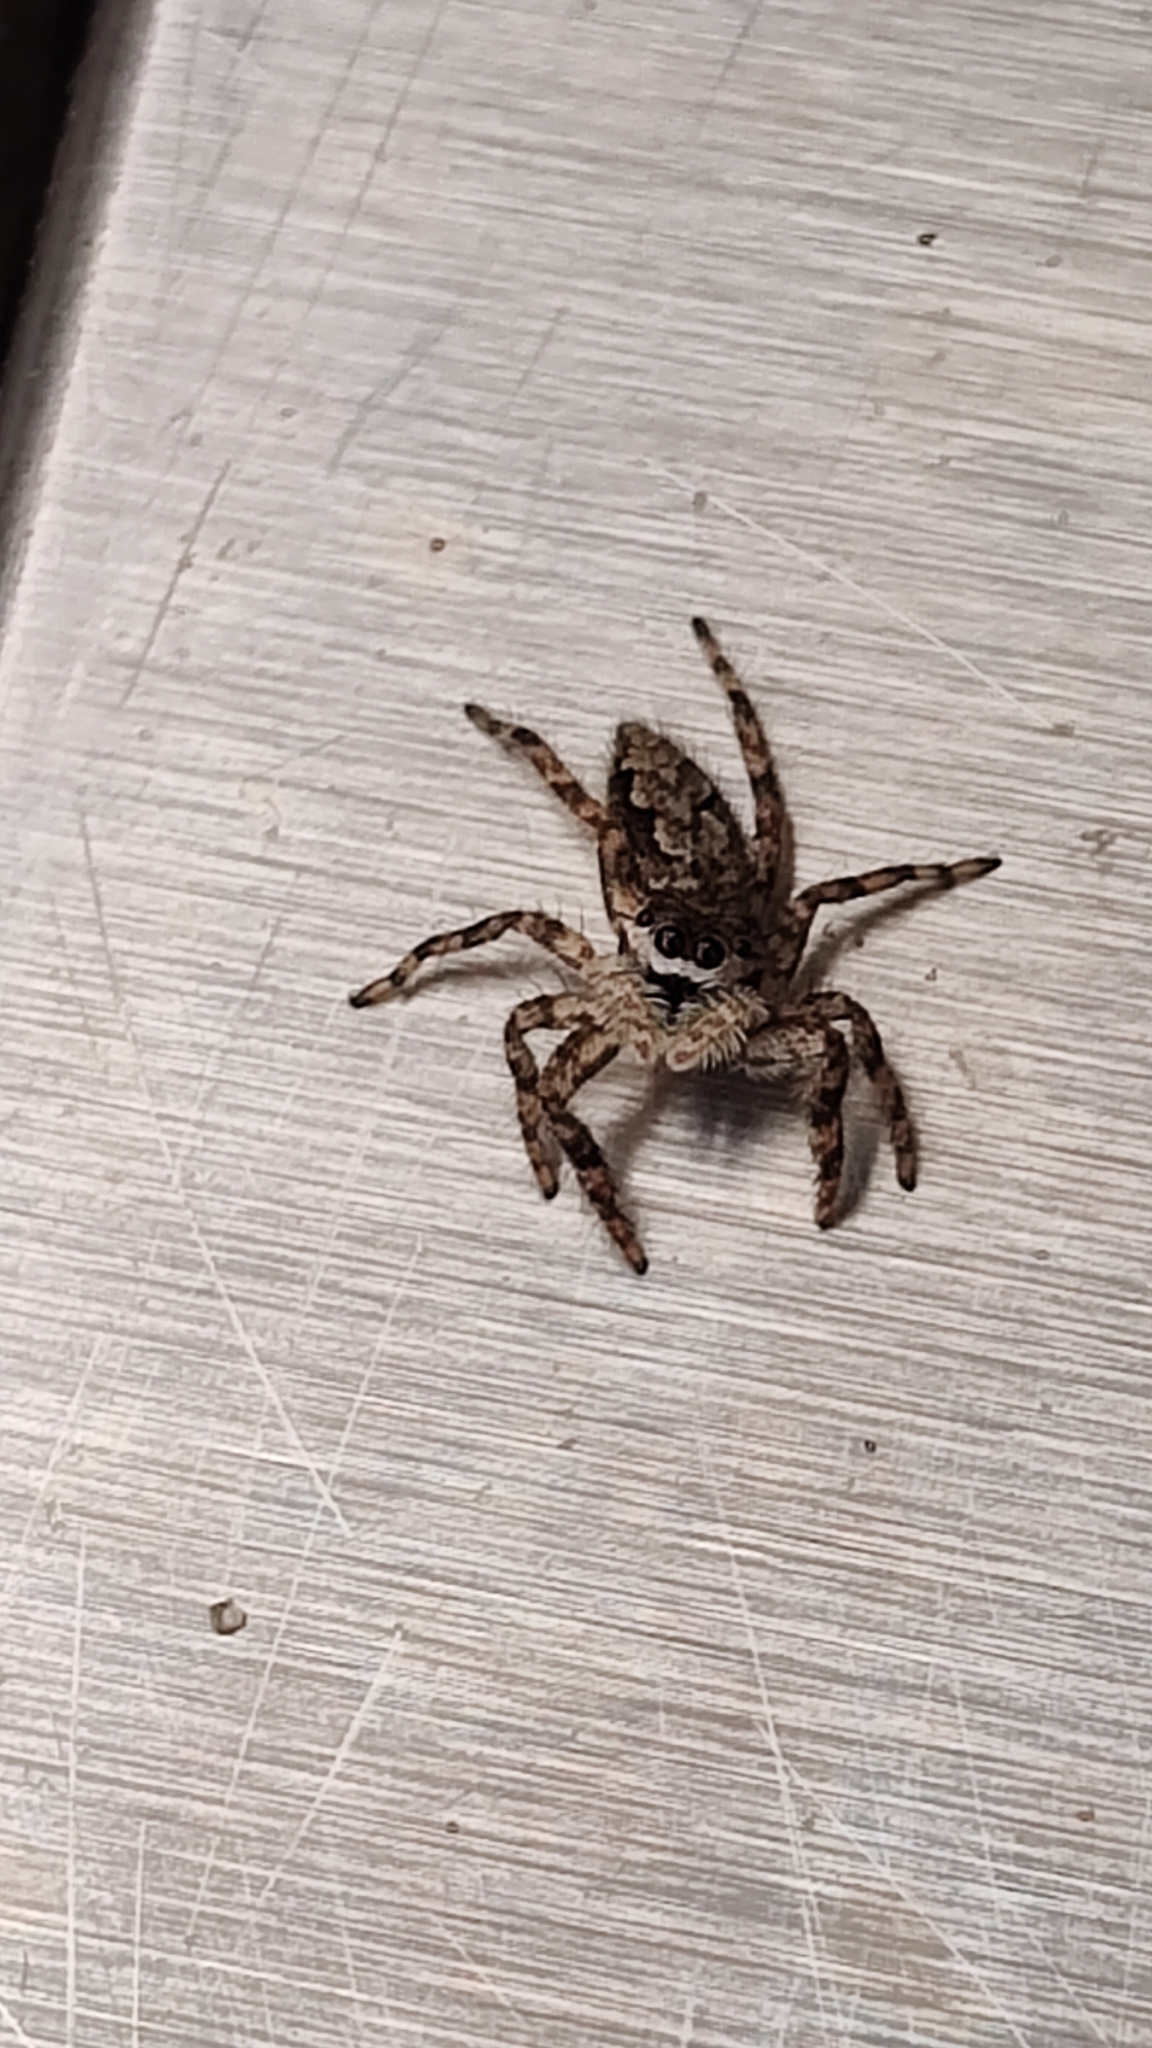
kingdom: Animalia
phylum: Arthropoda
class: Arachnida
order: Araneae
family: Salticidae
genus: Platycryptus
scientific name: Platycryptus undatus
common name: Tan jumping spider
